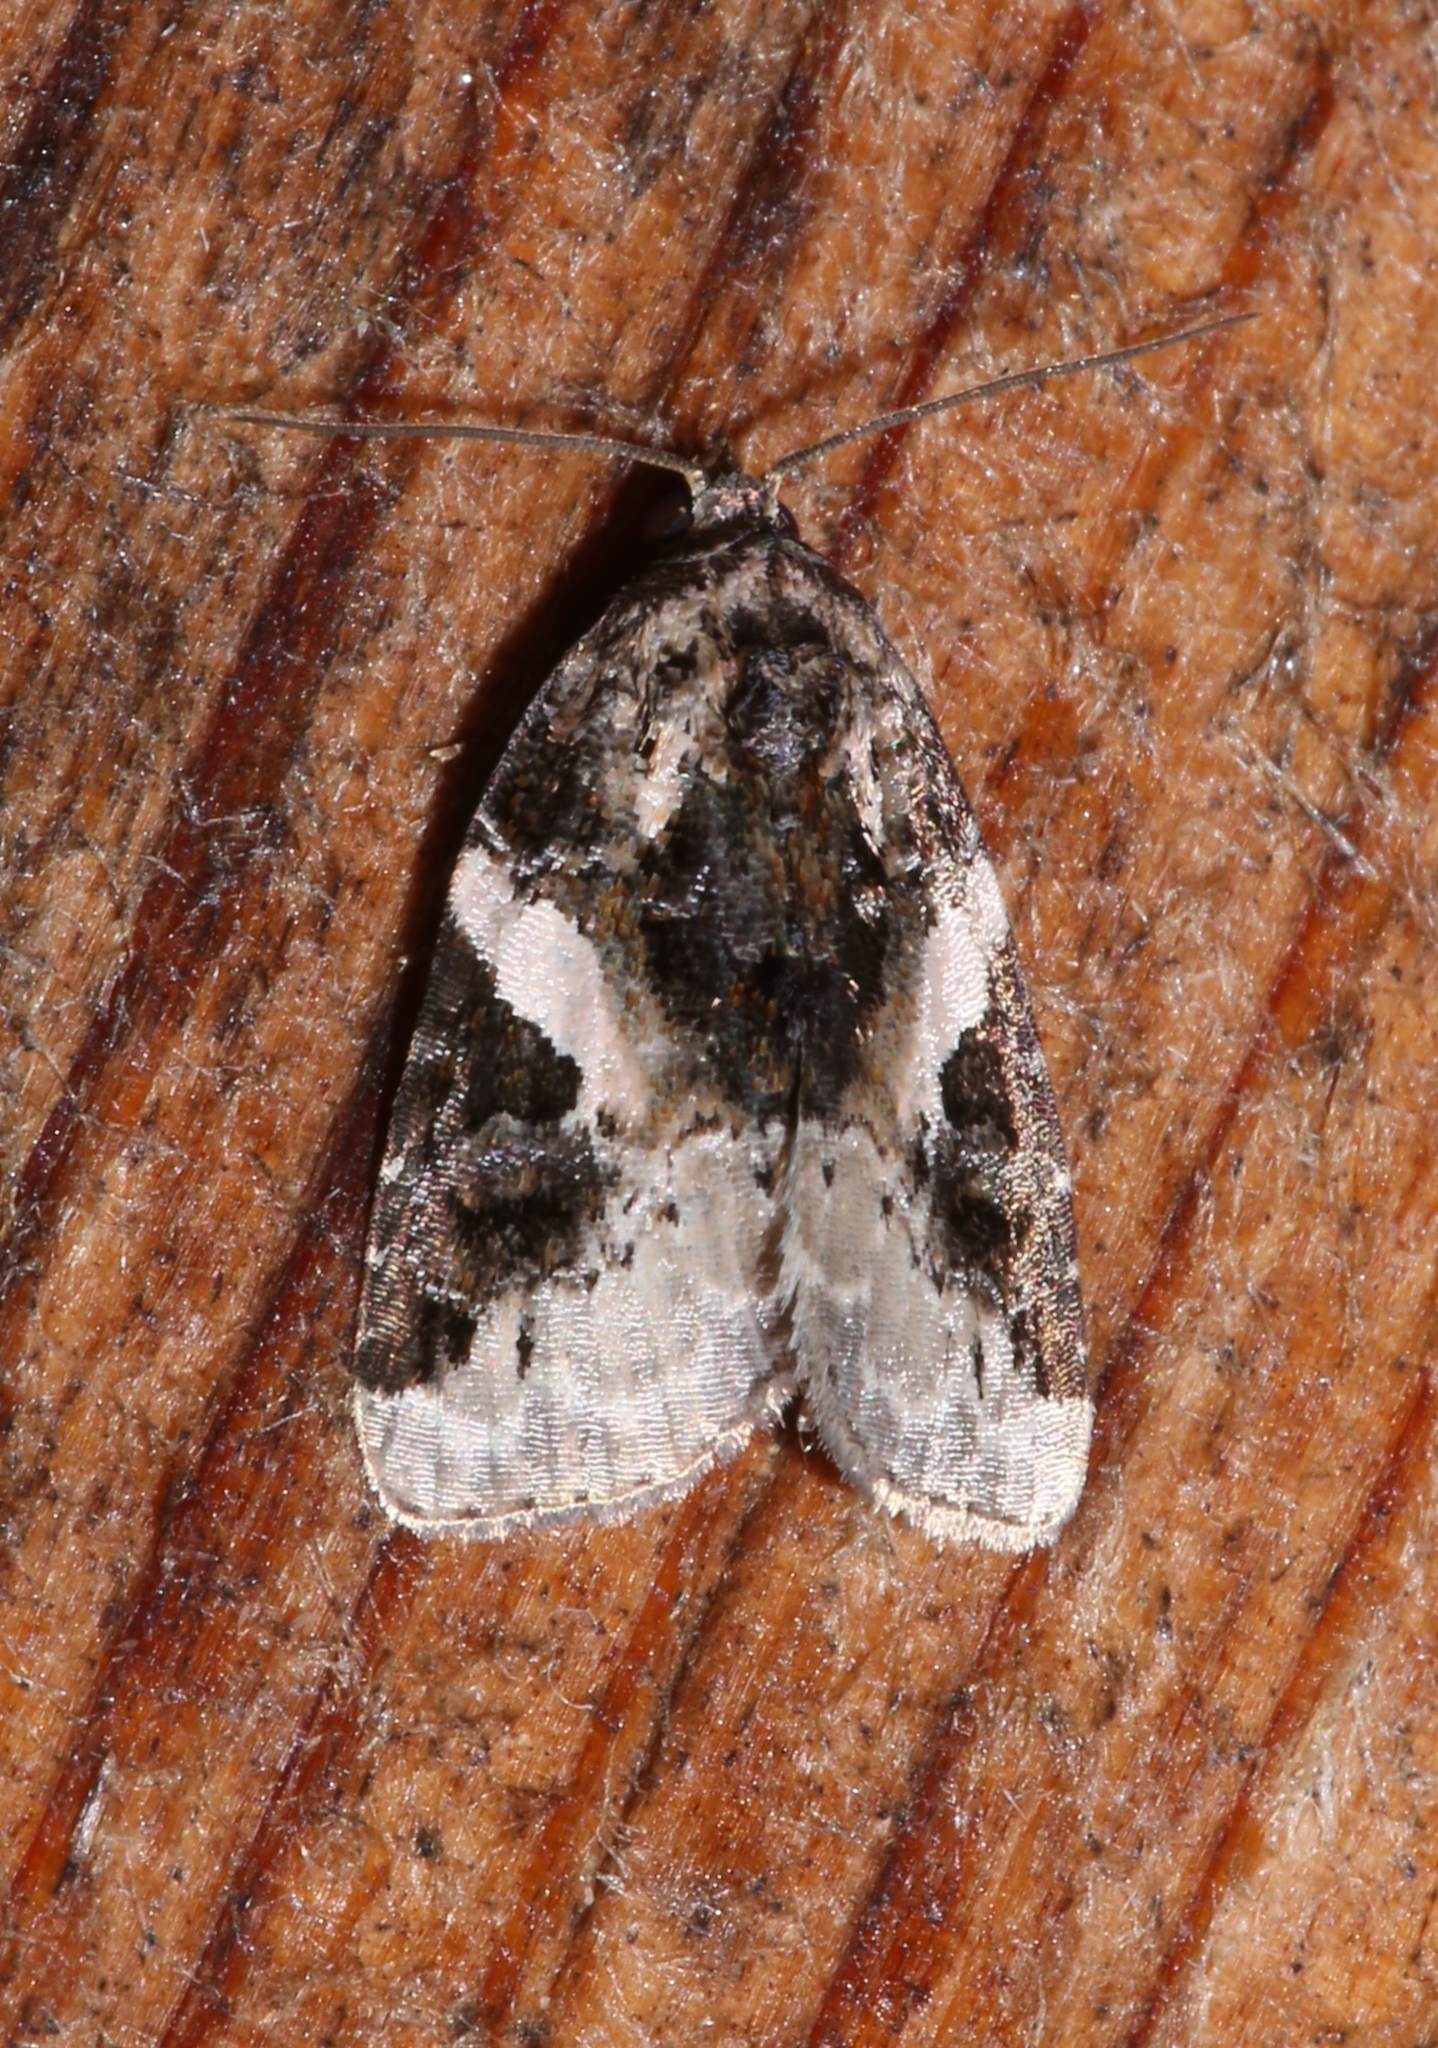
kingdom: Animalia
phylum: Arthropoda
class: Insecta
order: Lepidoptera
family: Noctuidae
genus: Pseudeustrotia
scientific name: Pseudeustrotia carneola
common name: Pink-barred lithacodia moth
